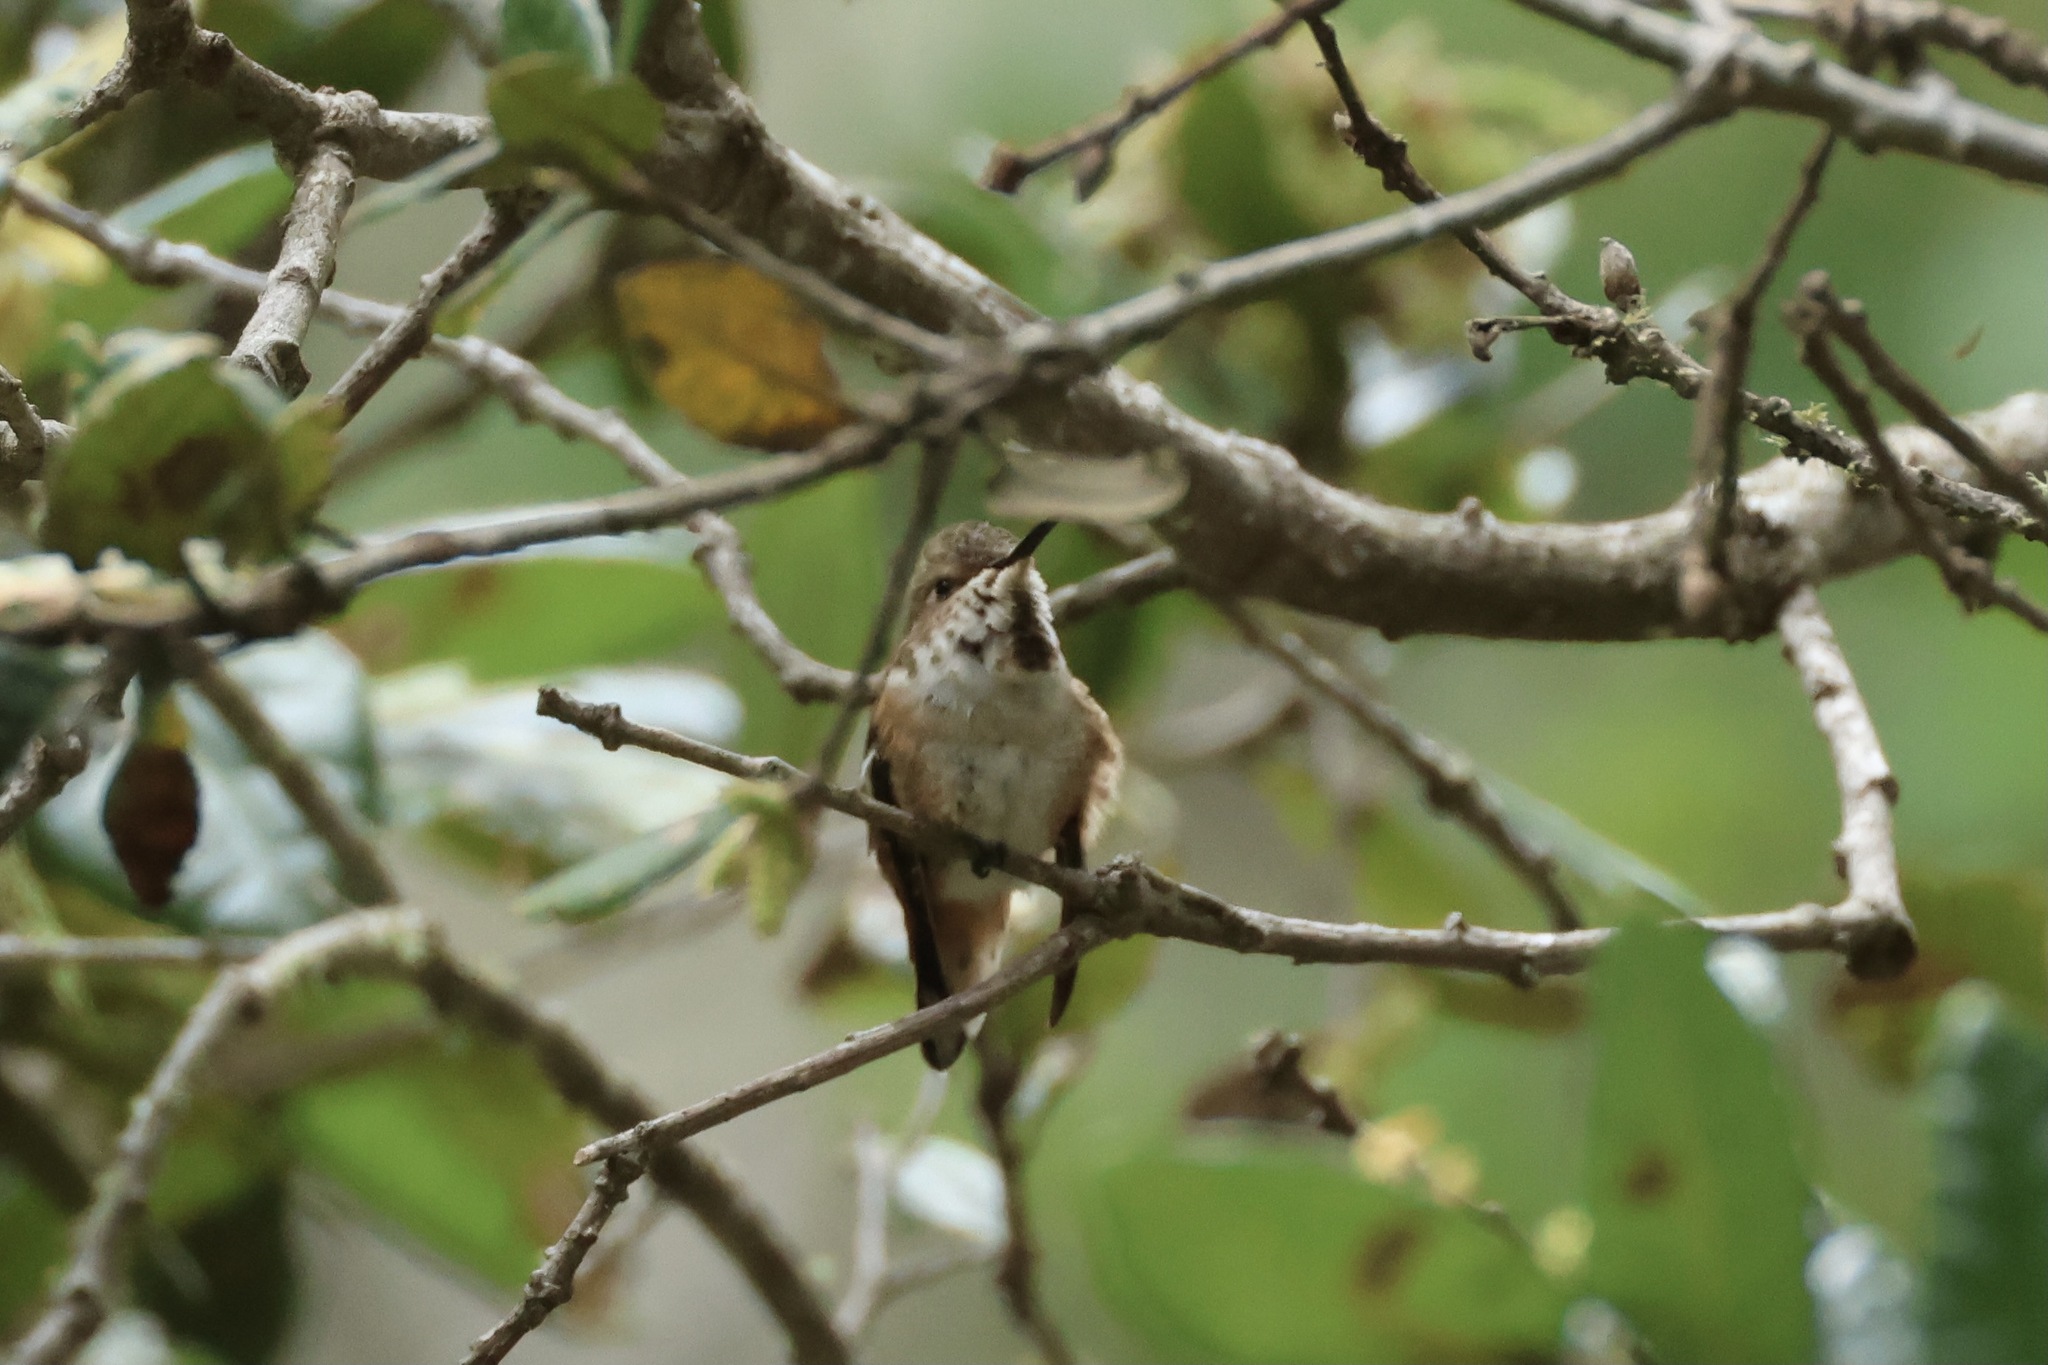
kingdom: Animalia
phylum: Chordata
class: Aves
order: Apodiformes
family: Trochilidae
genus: Selasphorus
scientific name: Selasphorus sasin
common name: Allen's hummingbird
